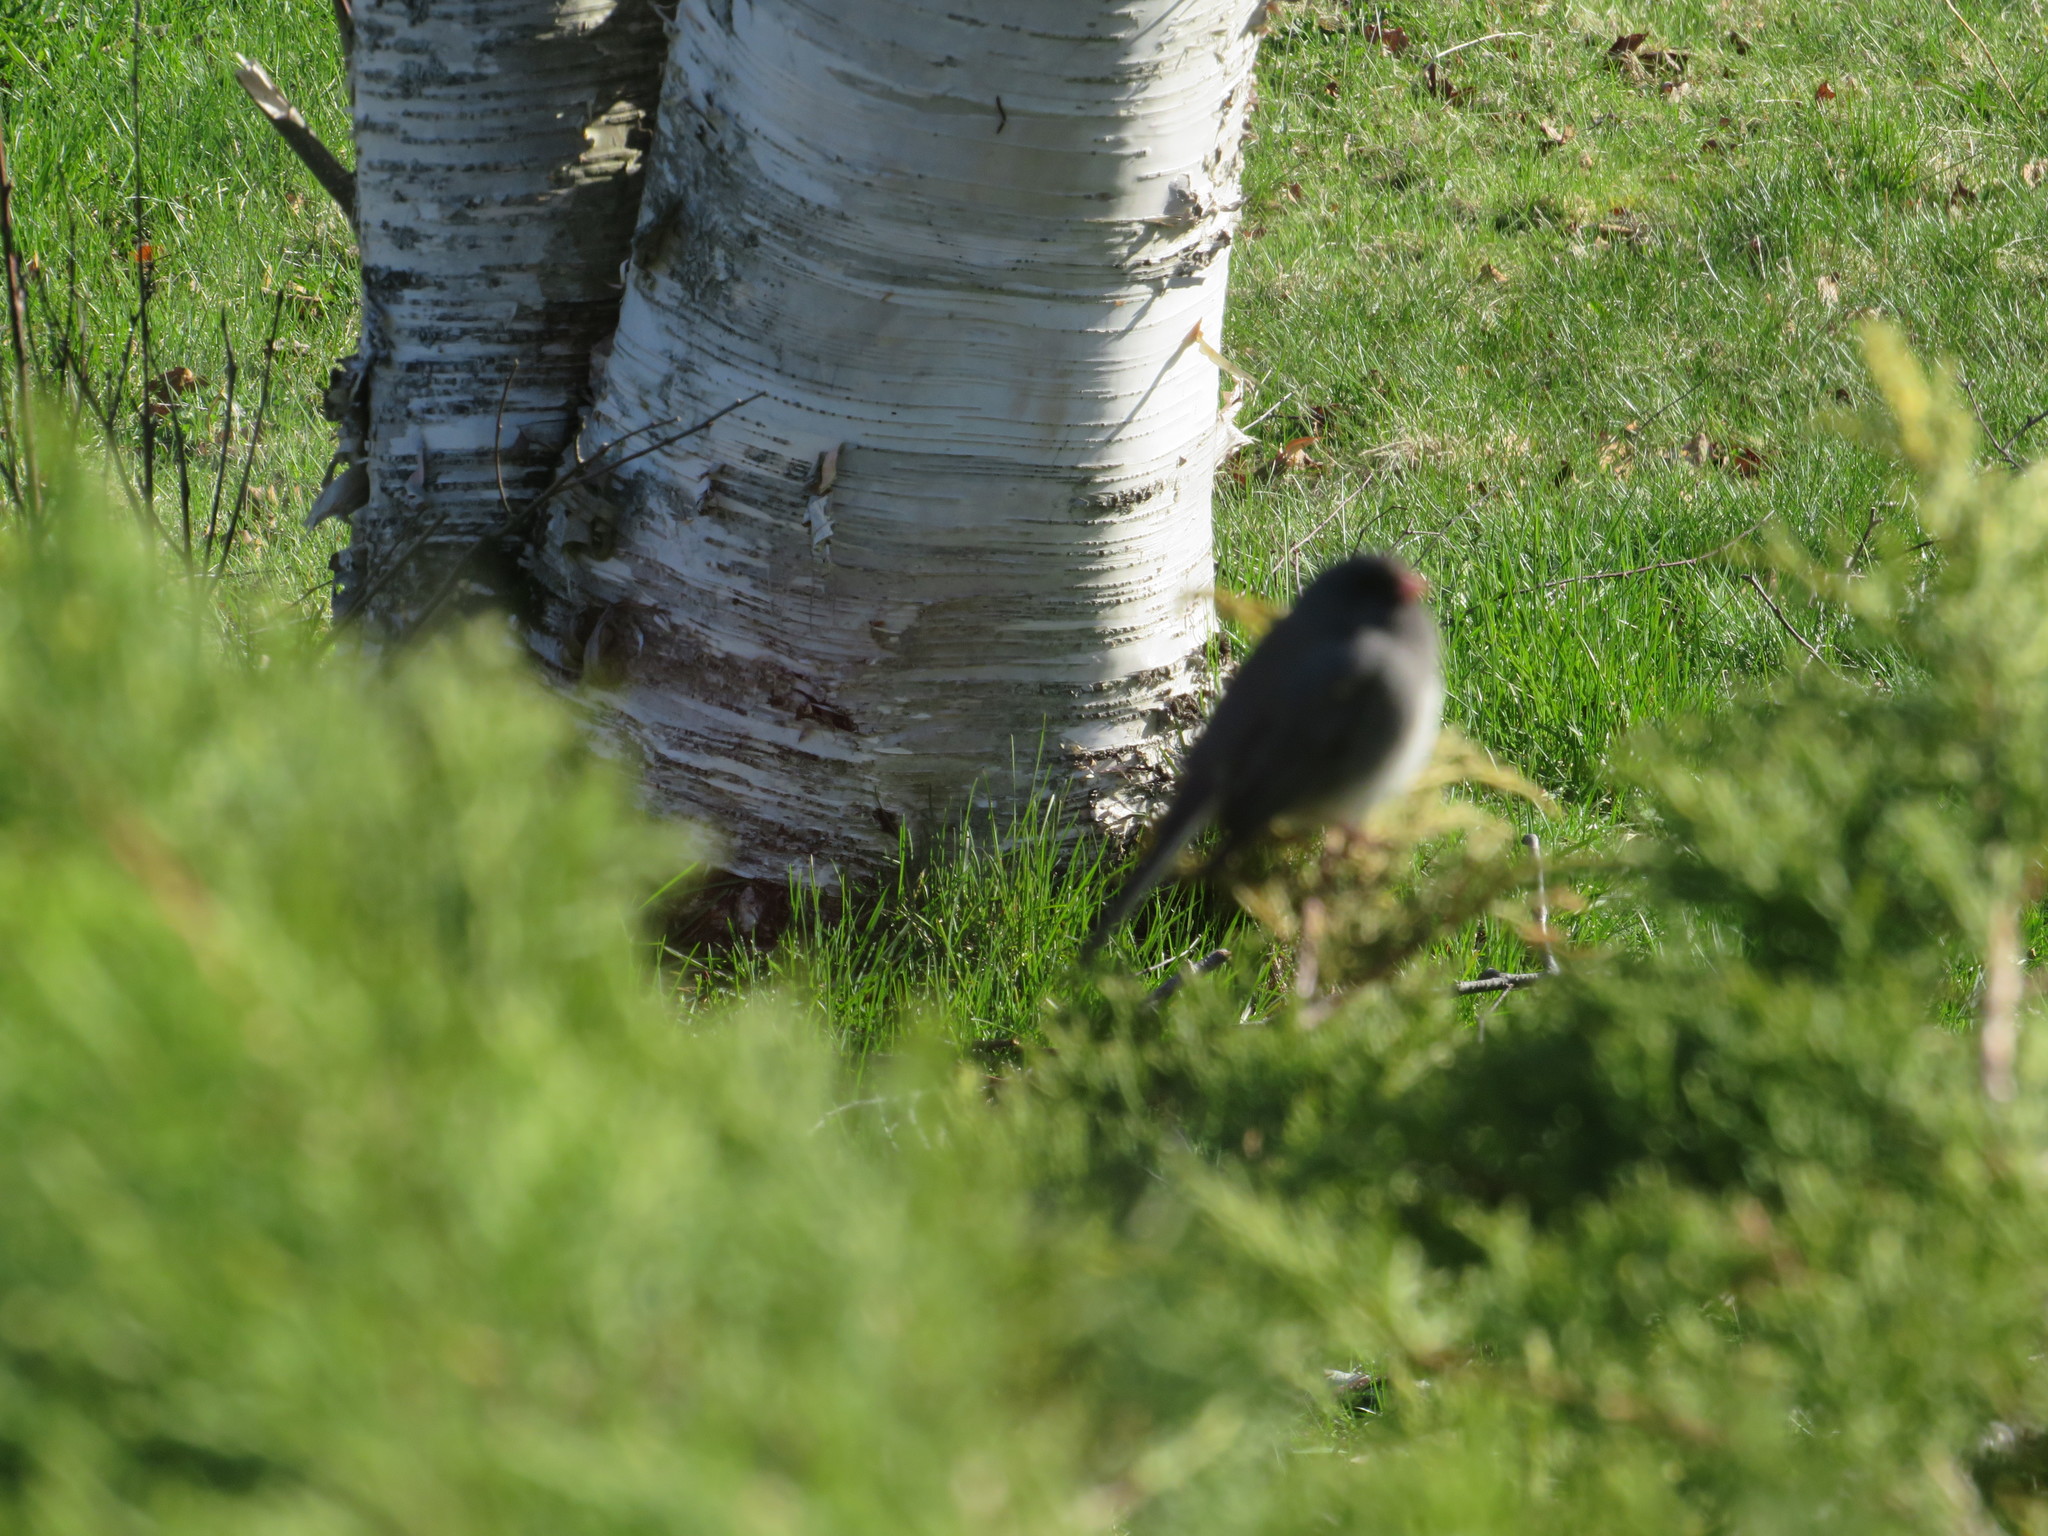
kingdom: Animalia
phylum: Chordata
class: Aves
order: Passeriformes
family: Passerellidae
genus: Junco
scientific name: Junco hyemalis
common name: Dark-eyed junco
